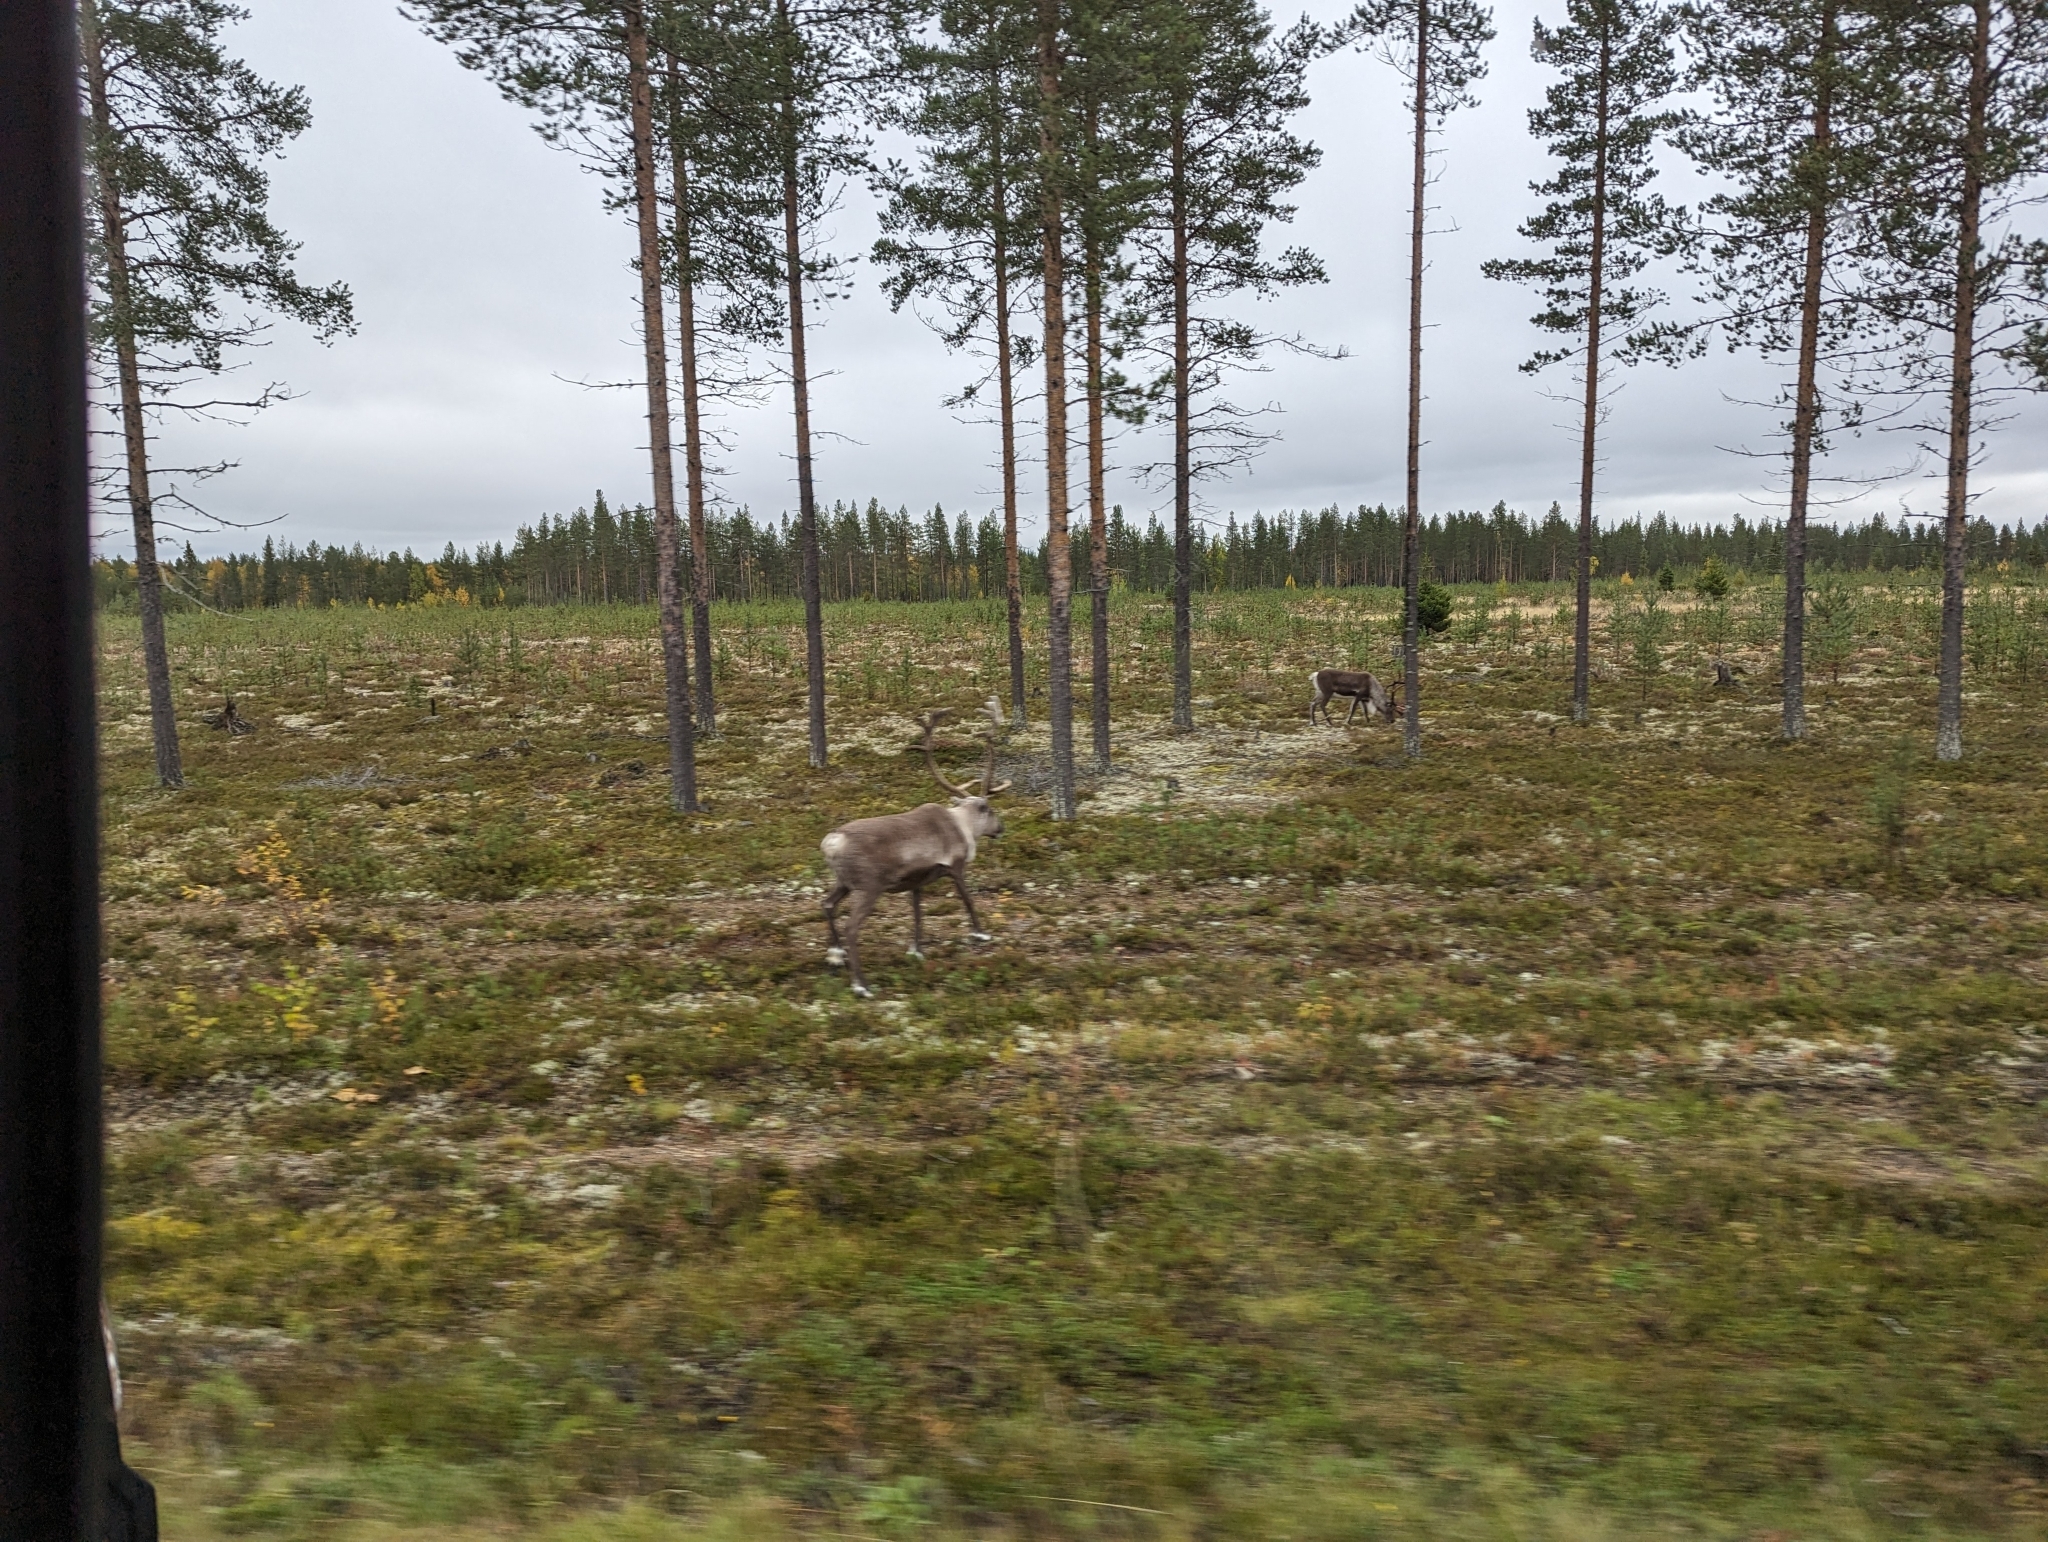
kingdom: Animalia
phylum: Chordata
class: Mammalia
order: Artiodactyla
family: Cervidae
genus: Rangifer
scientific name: Rangifer tarandus
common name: Reindeer
